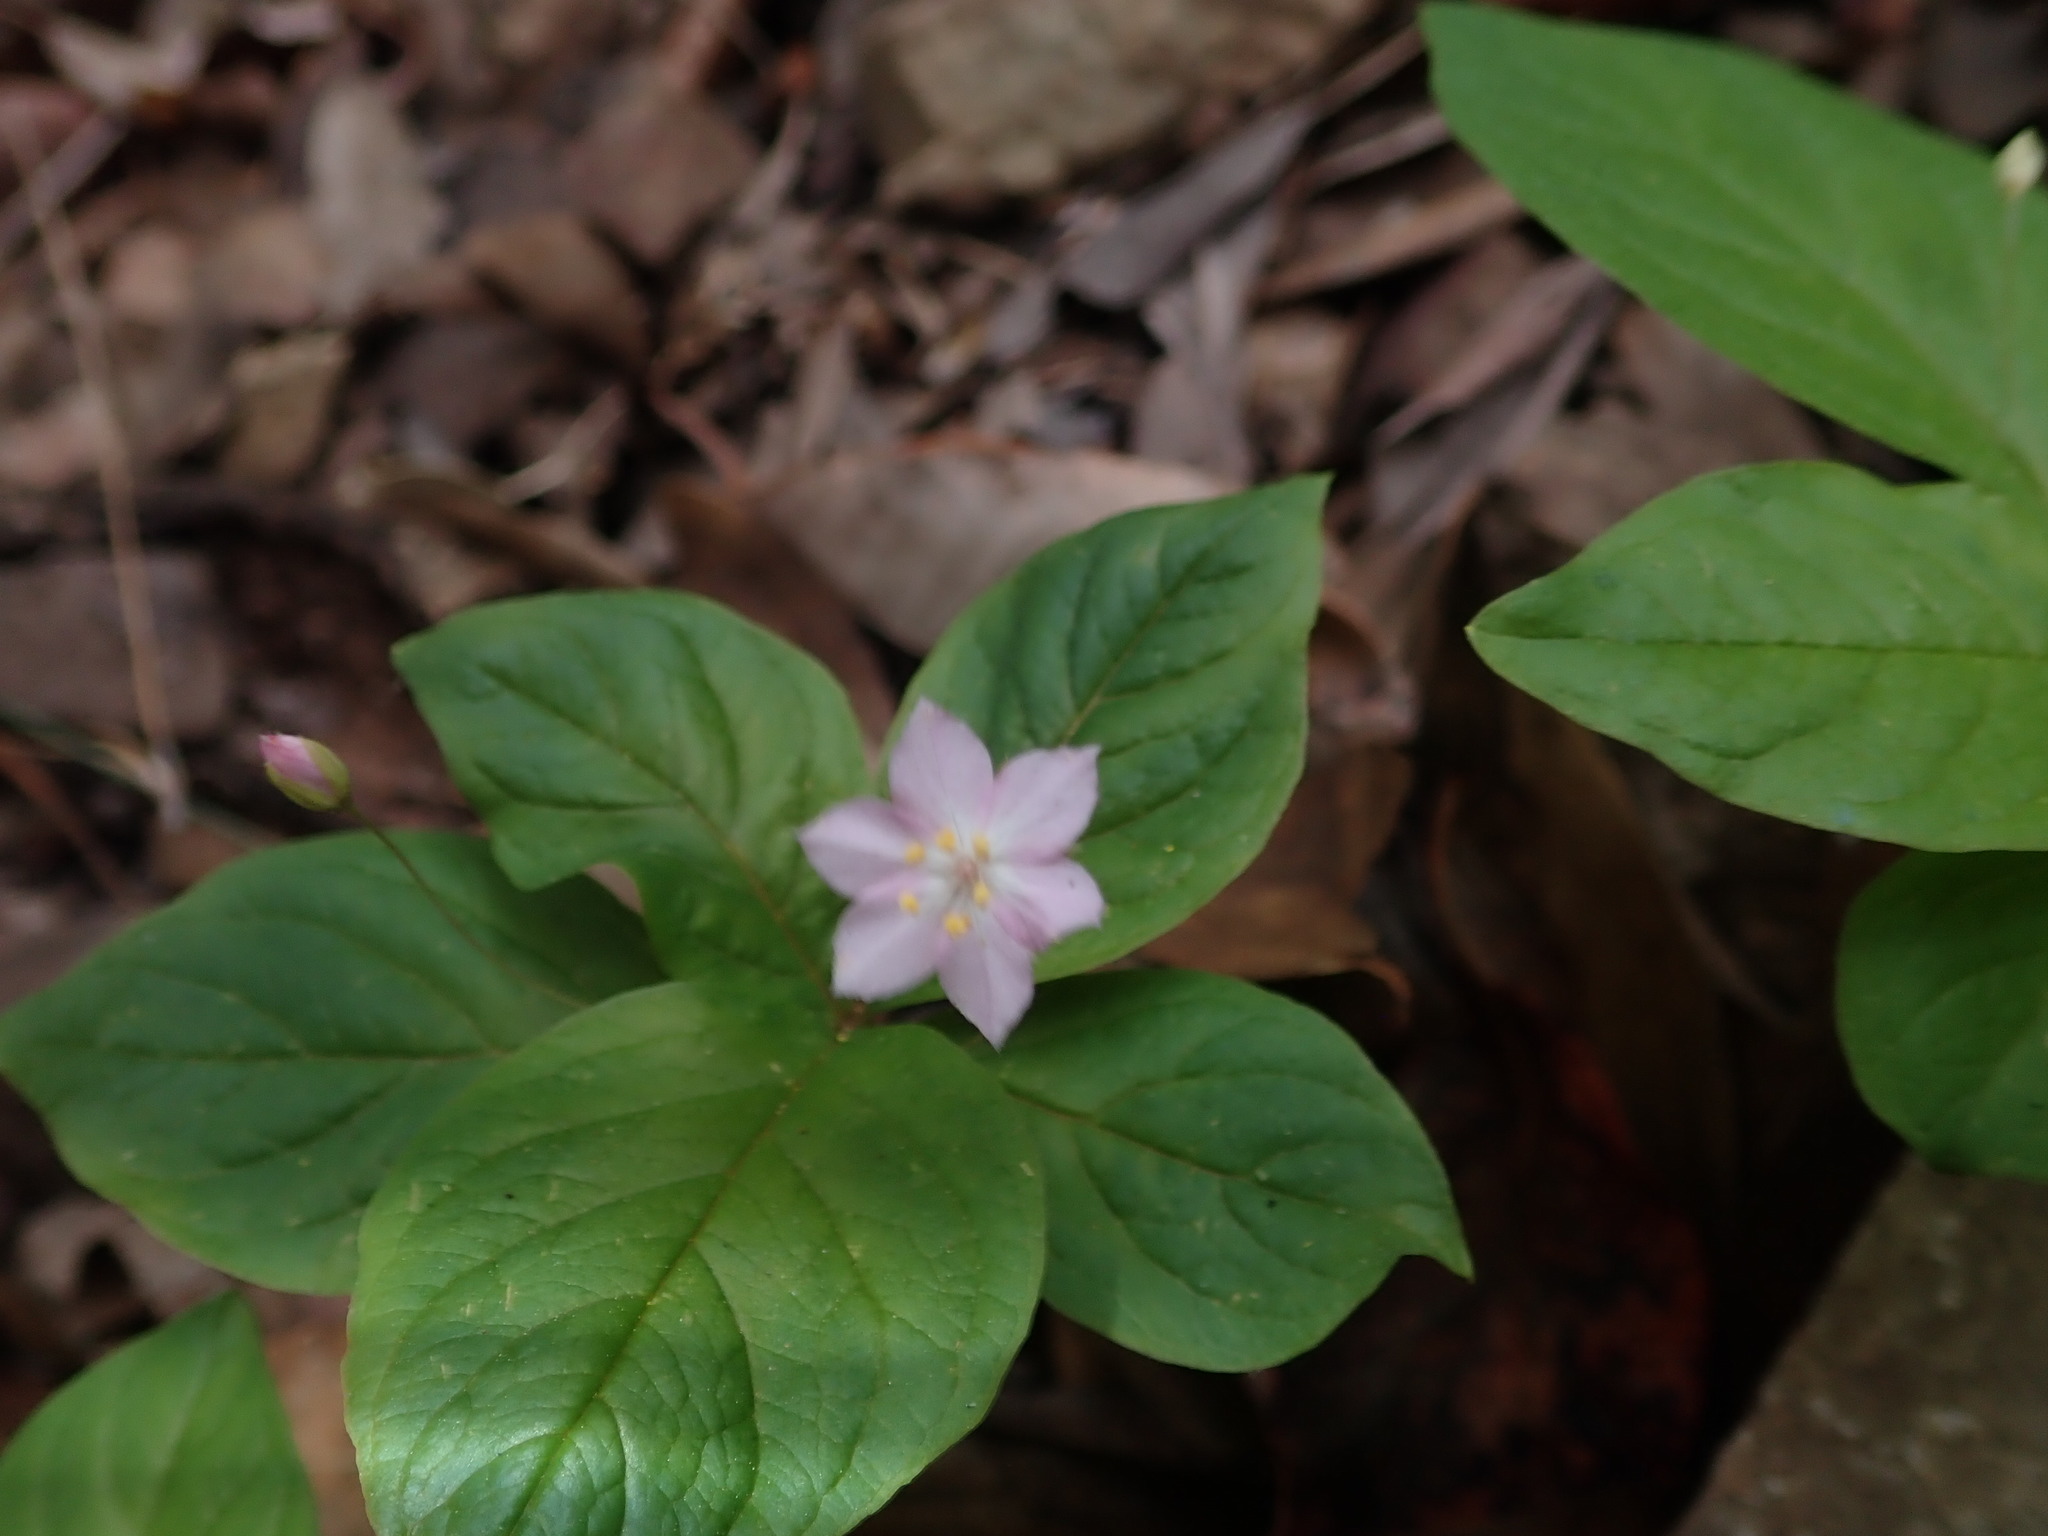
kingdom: Plantae
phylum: Tracheophyta
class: Magnoliopsida
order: Ericales
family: Primulaceae
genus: Lysimachia
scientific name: Lysimachia latifolia
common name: Pacific starflower
